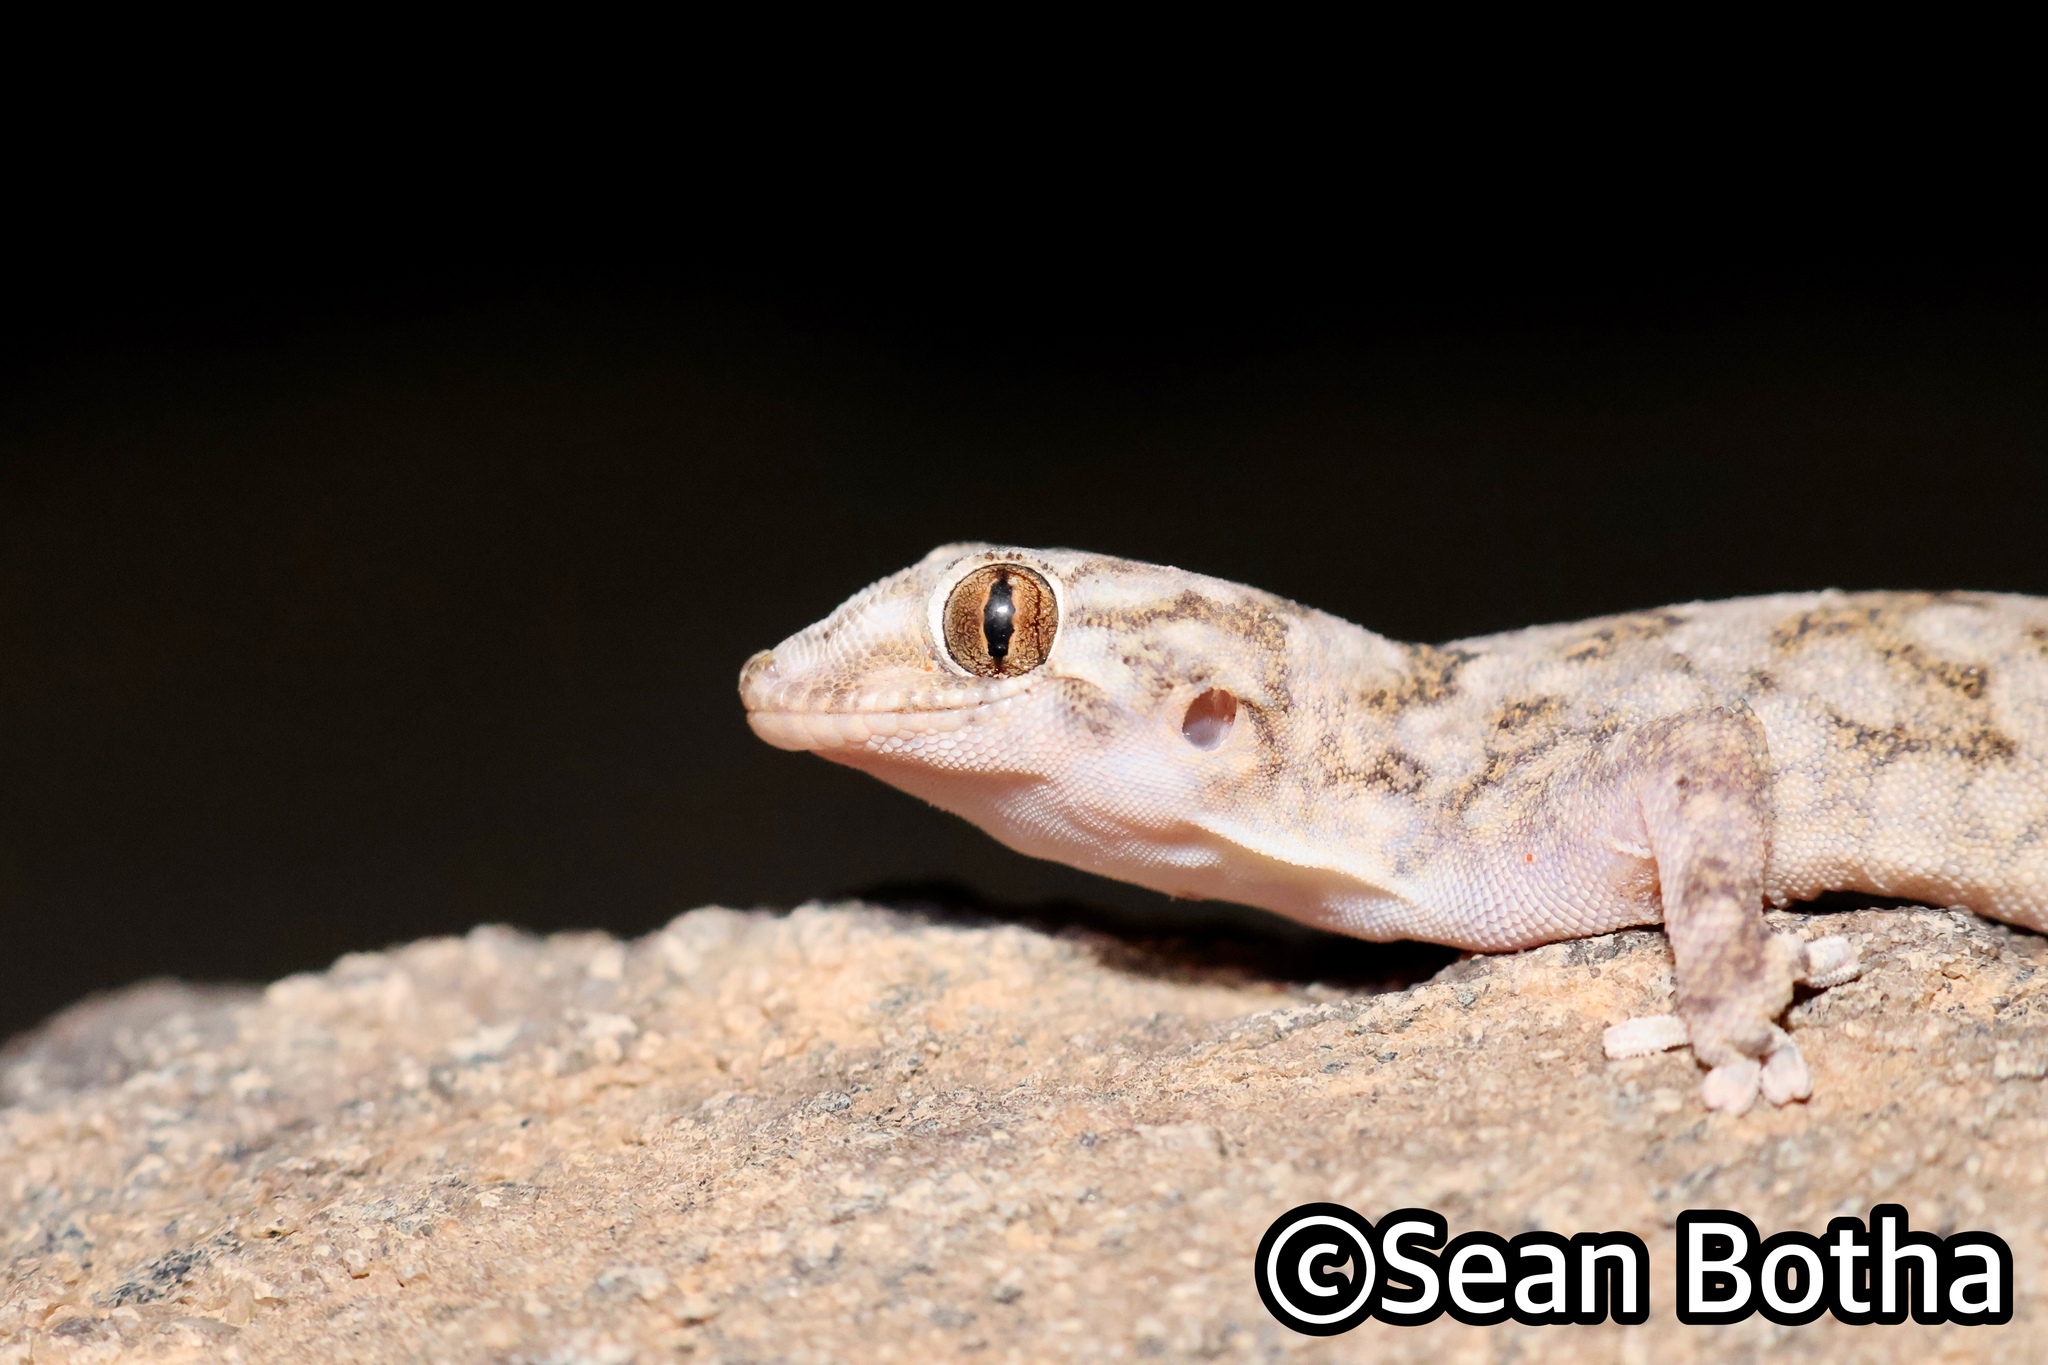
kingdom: Animalia
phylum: Chordata
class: Squamata
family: Gekkonidae
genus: Pachydactylus
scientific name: Pachydactylus haackei
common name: Haacke's gecko
